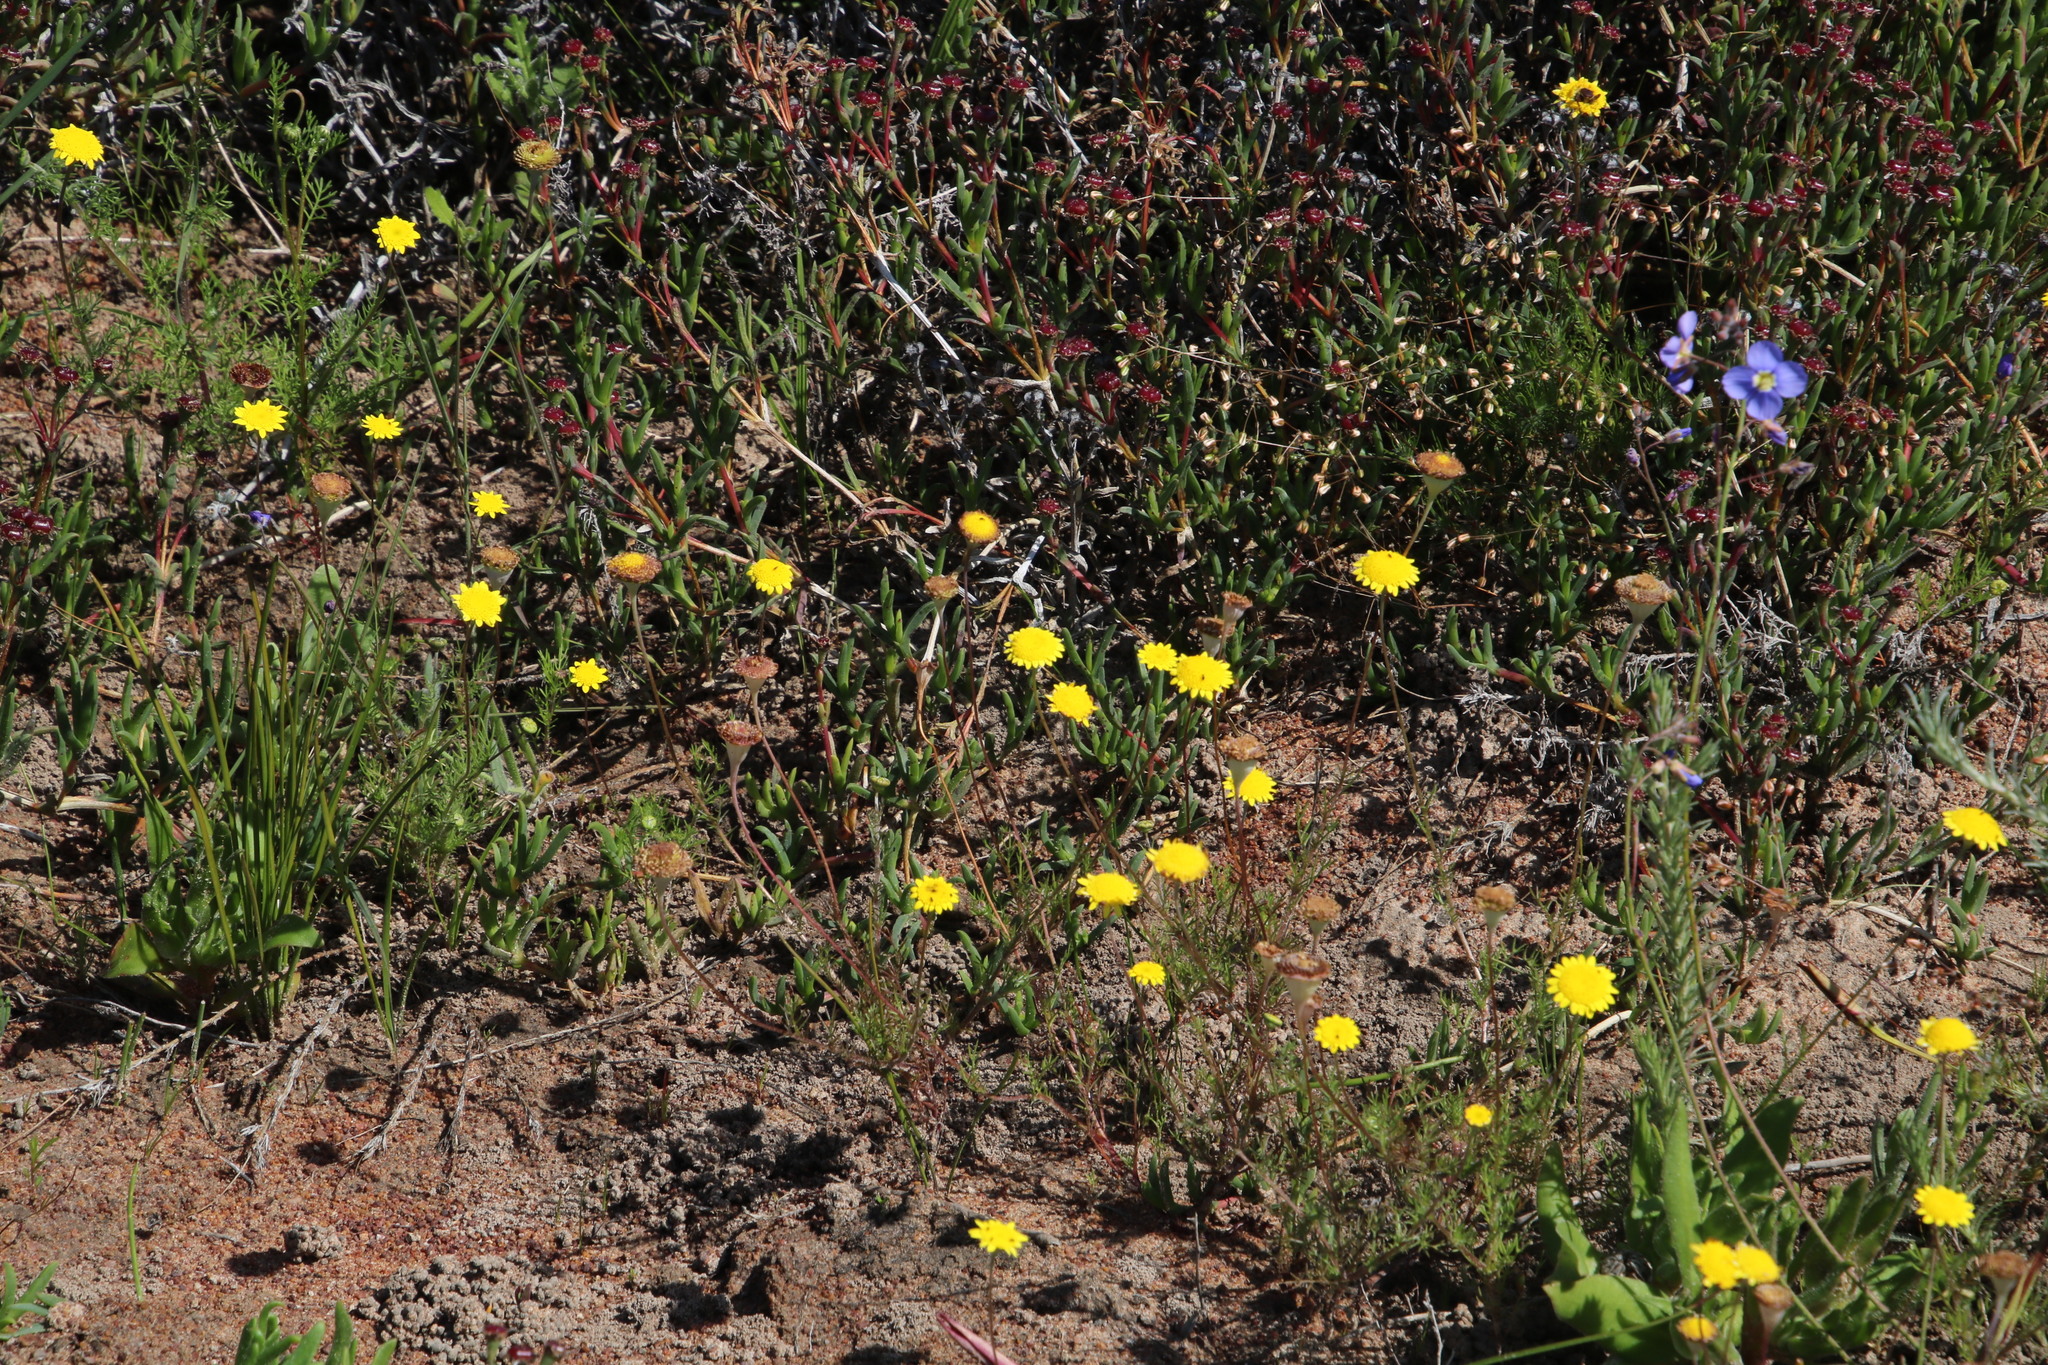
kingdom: Plantae
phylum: Tracheophyta
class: Magnoliopsida
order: Asterales
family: Asteraceae
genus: Cotula
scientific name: Cotula pruinosa
